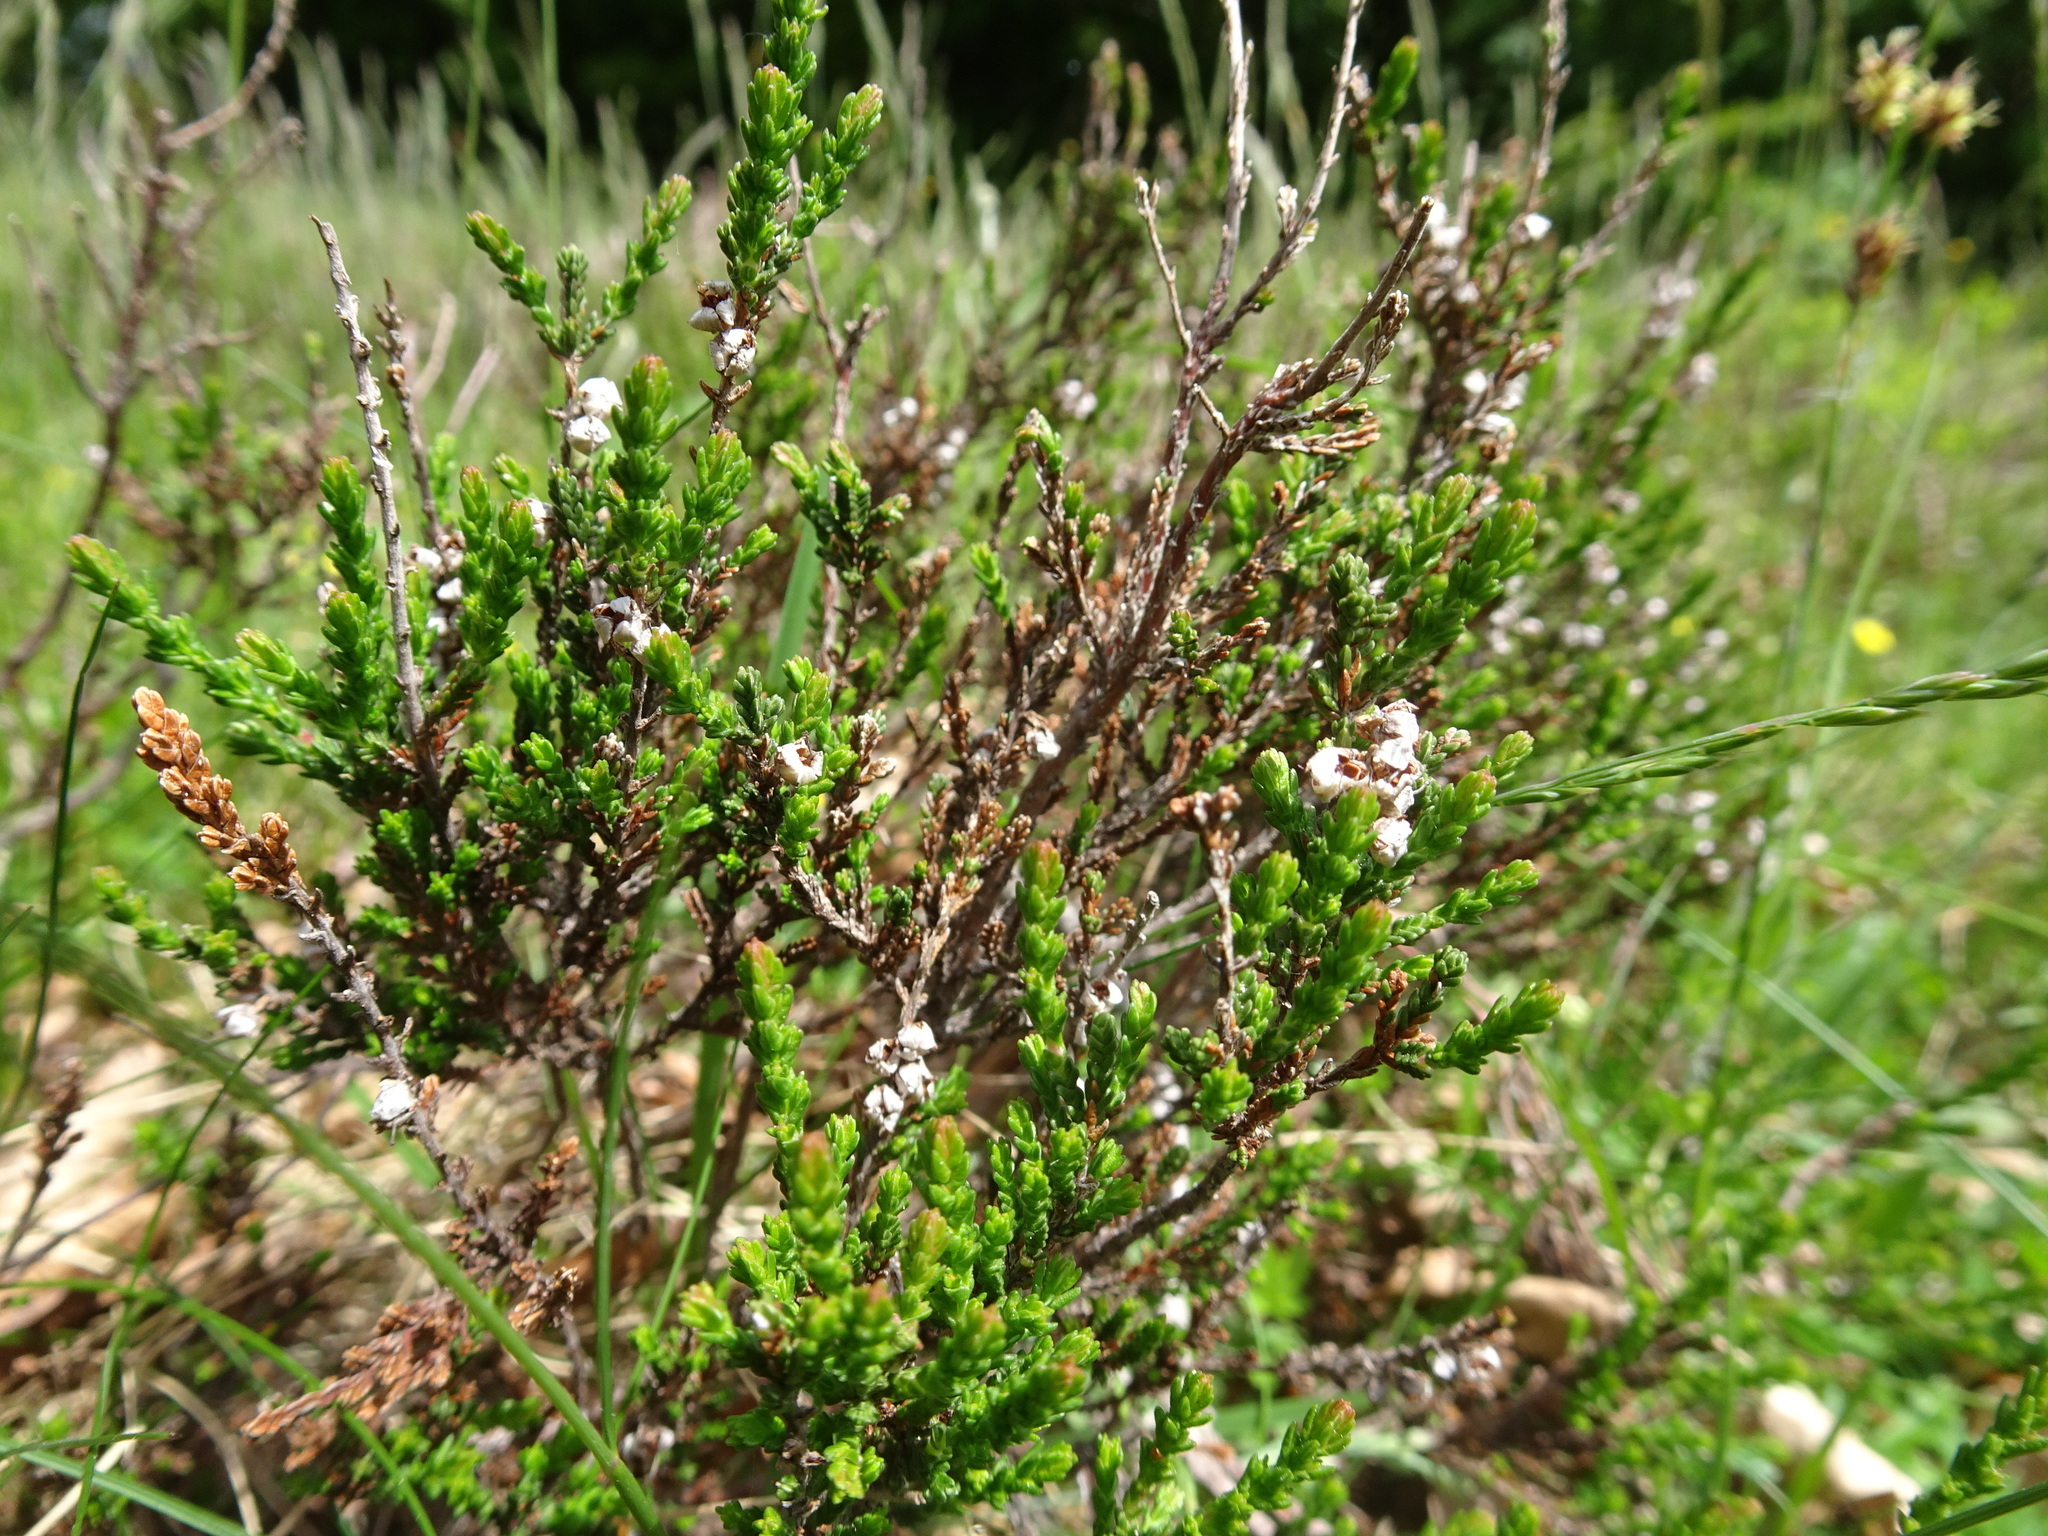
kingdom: Plantae
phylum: Tracheophyta
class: Magnoliopsida
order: Ericales
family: Ericaceae
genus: Calluna
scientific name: Calluna vulgaris
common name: Heather
